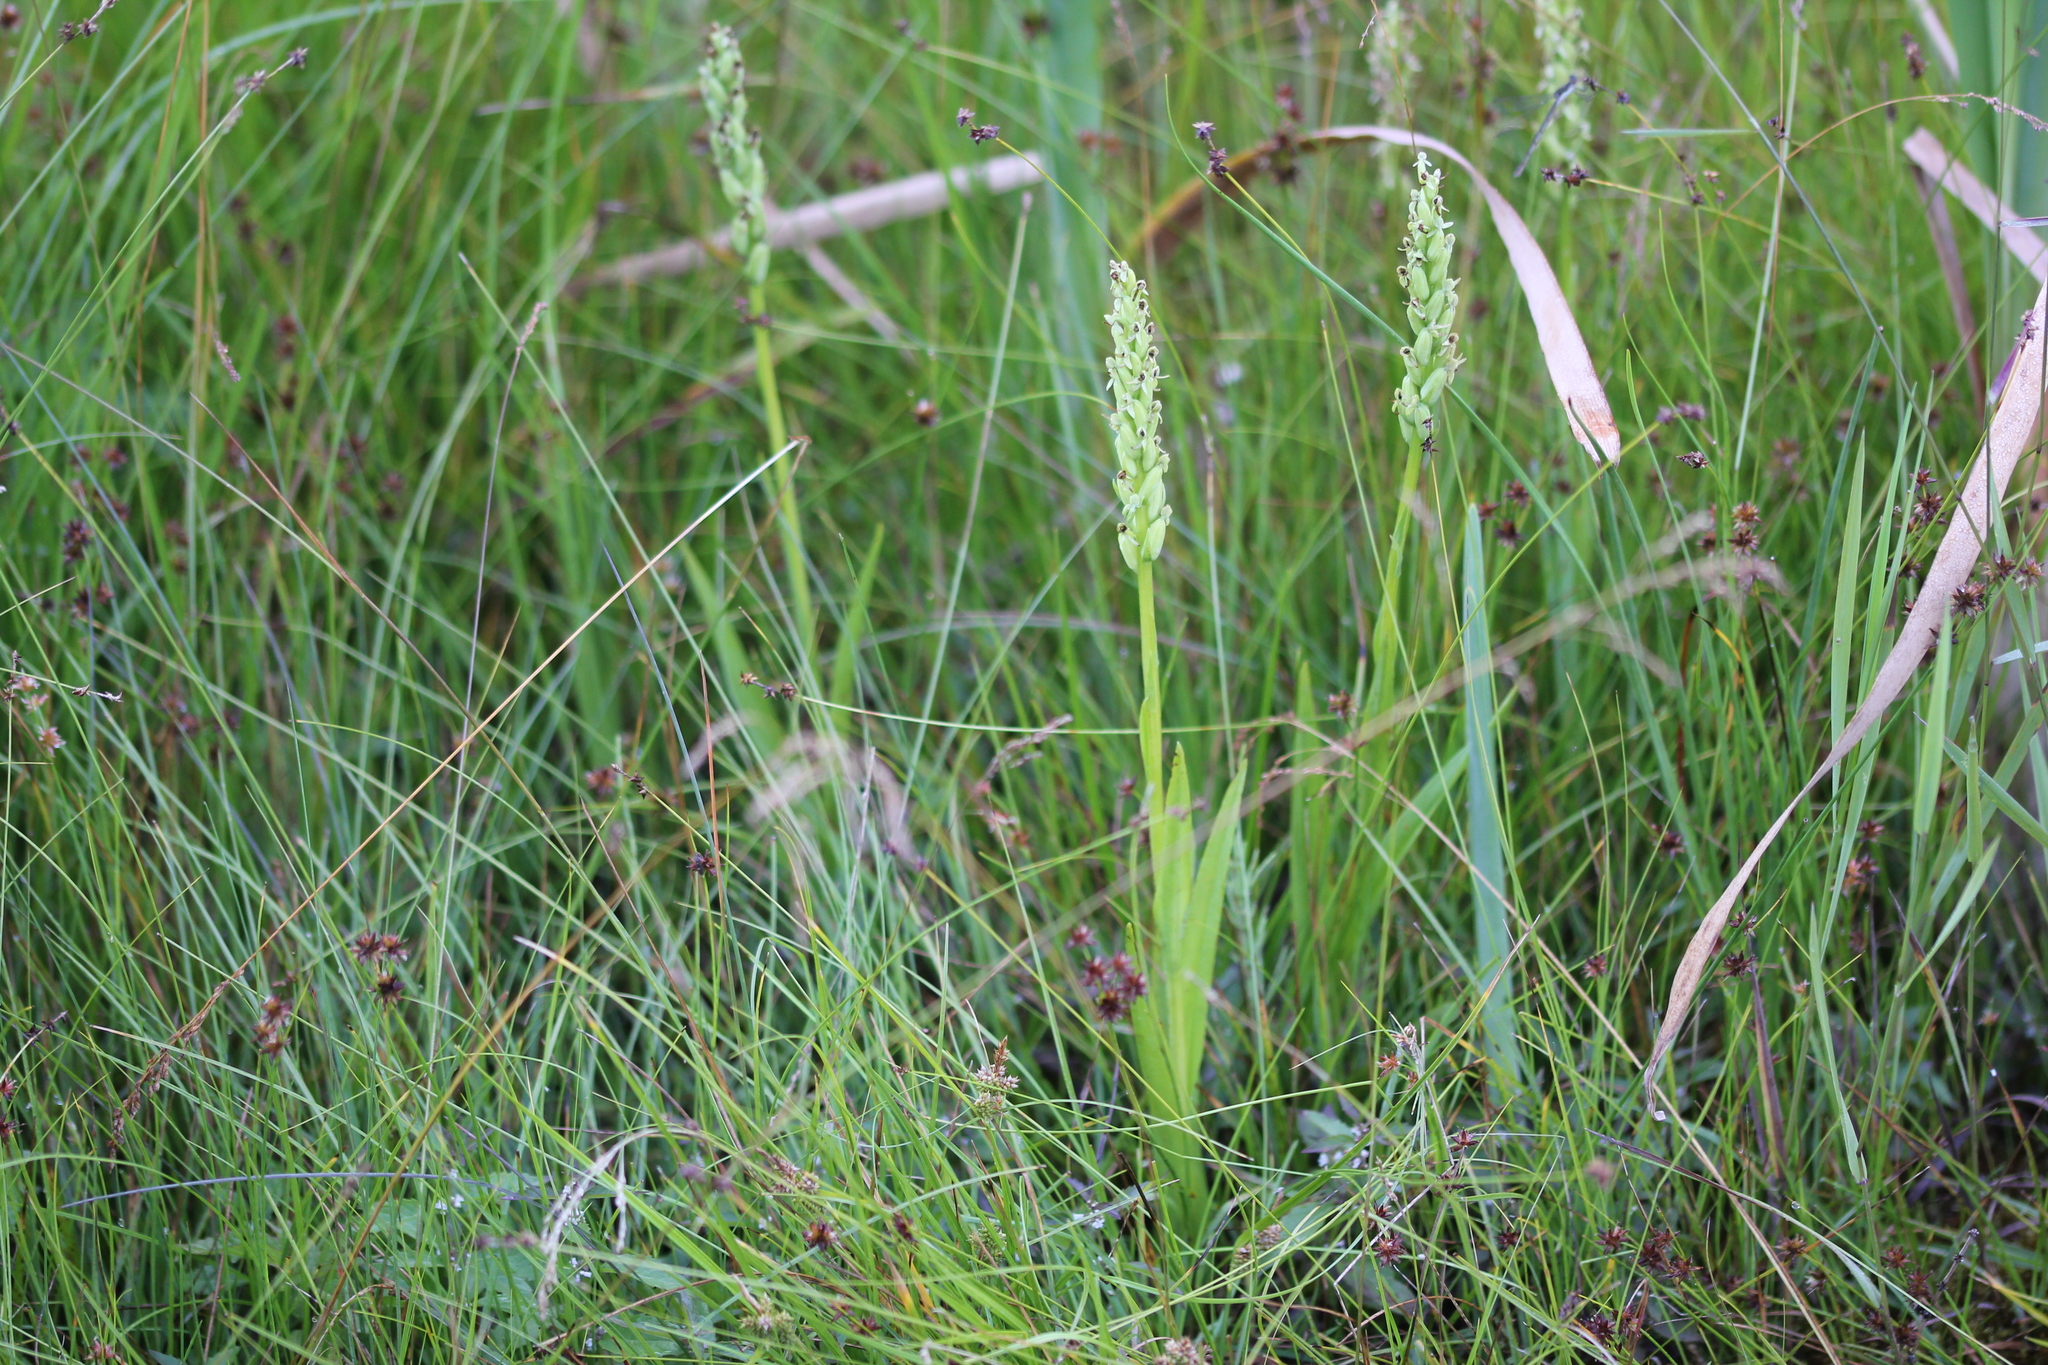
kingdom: Plantae
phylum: Tracheophyta
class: Liliopsida
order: Asparagales
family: Orchidaceae
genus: Platanthera
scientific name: Platanthera huronensis
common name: Fragrant green orchid
